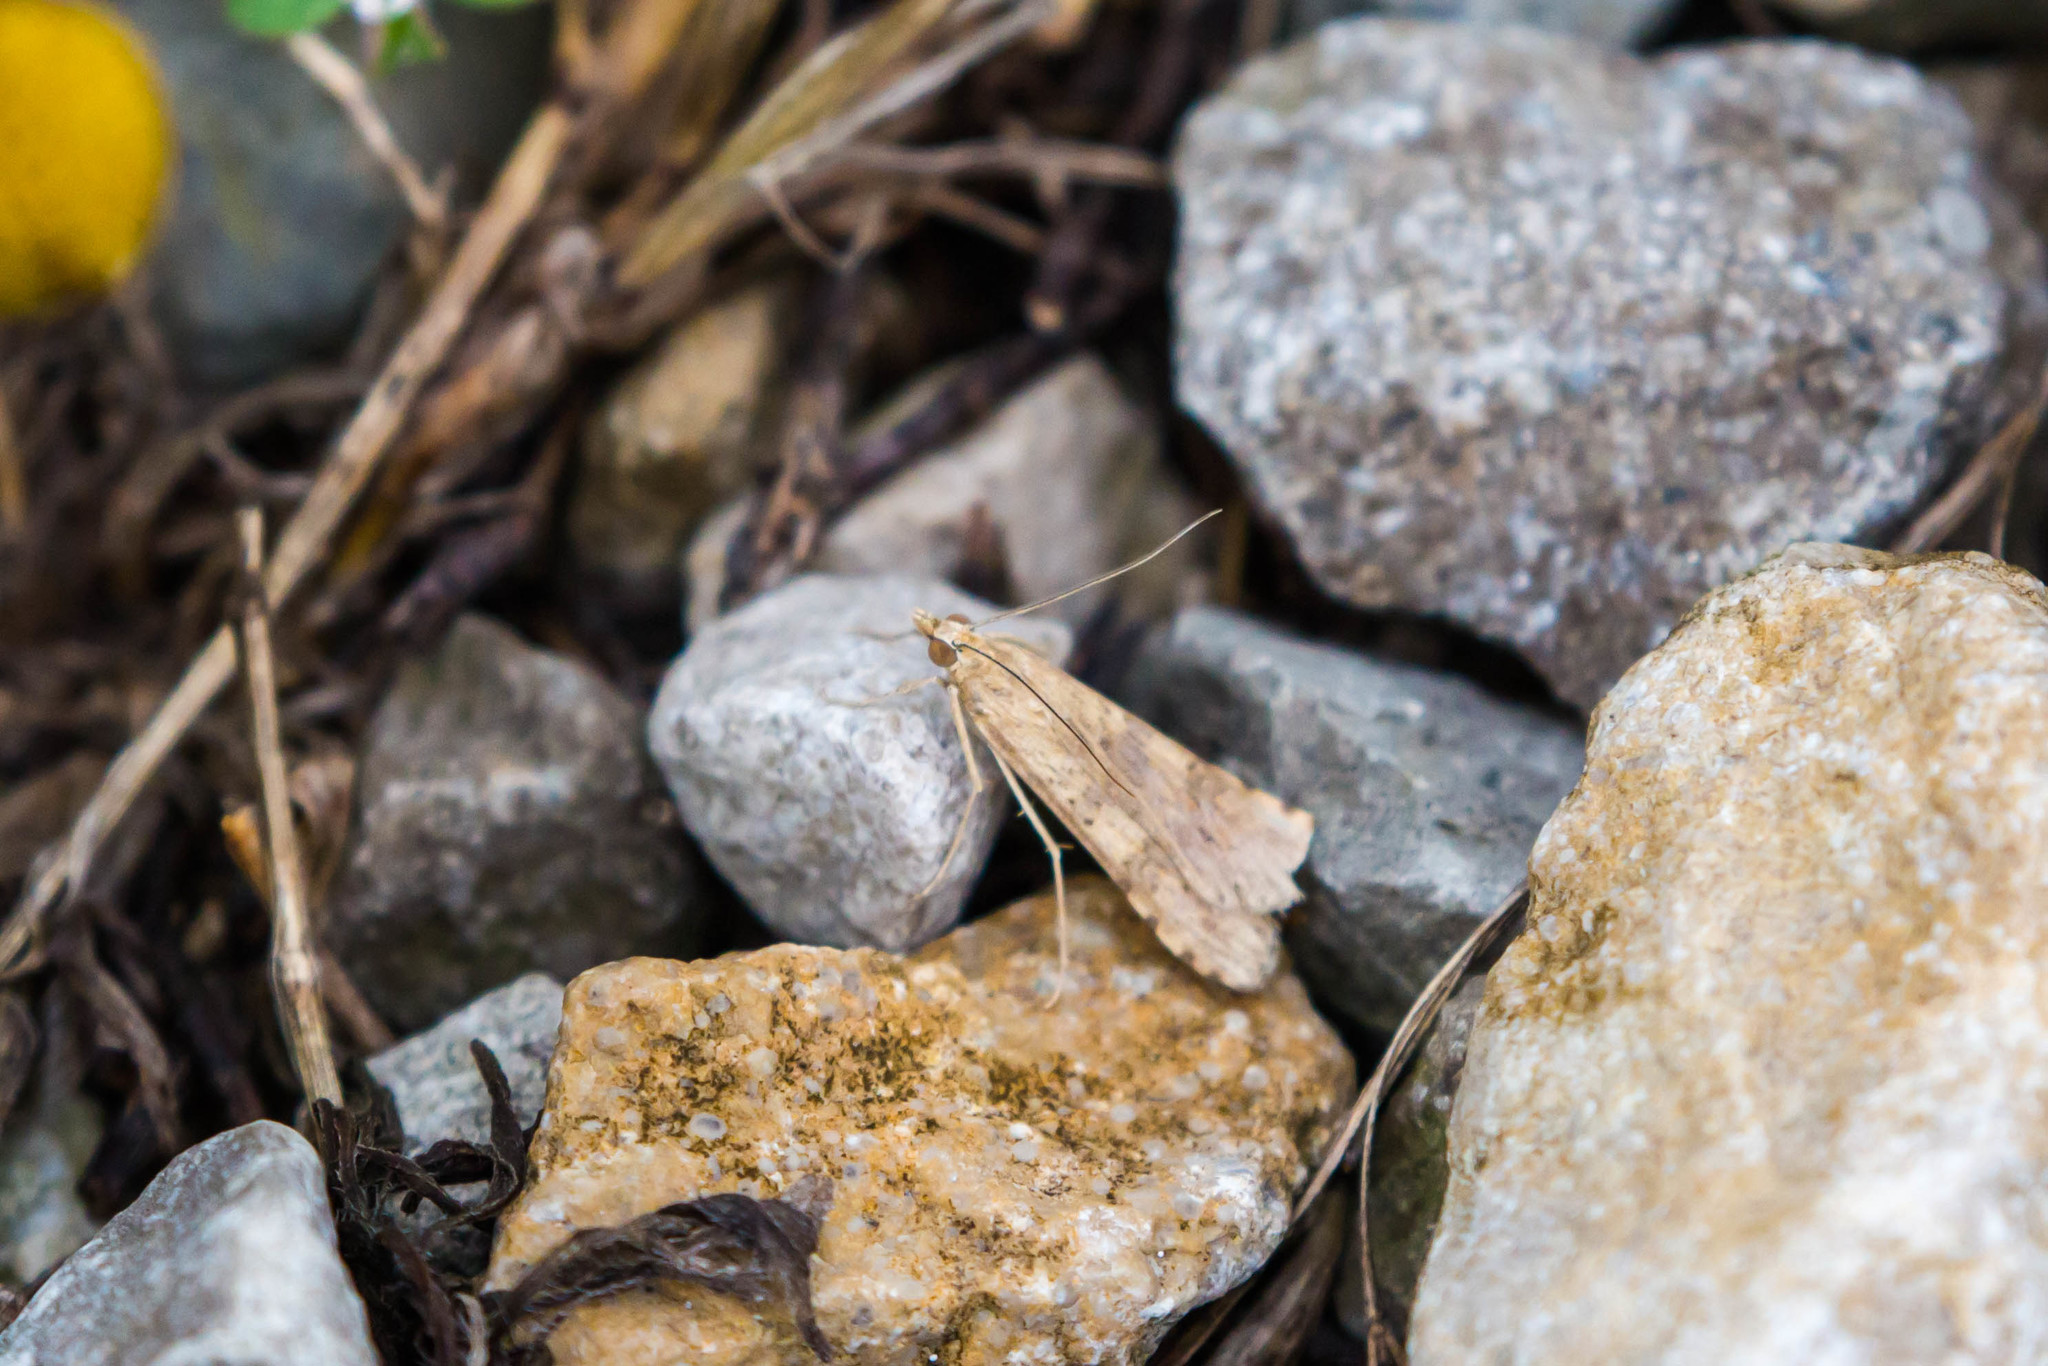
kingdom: Animalia
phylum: Arthropoda
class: Insecta
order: Lepidoptera
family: Crambidae
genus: Nomophila
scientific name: Nomophila nearctica
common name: American rush veneer
